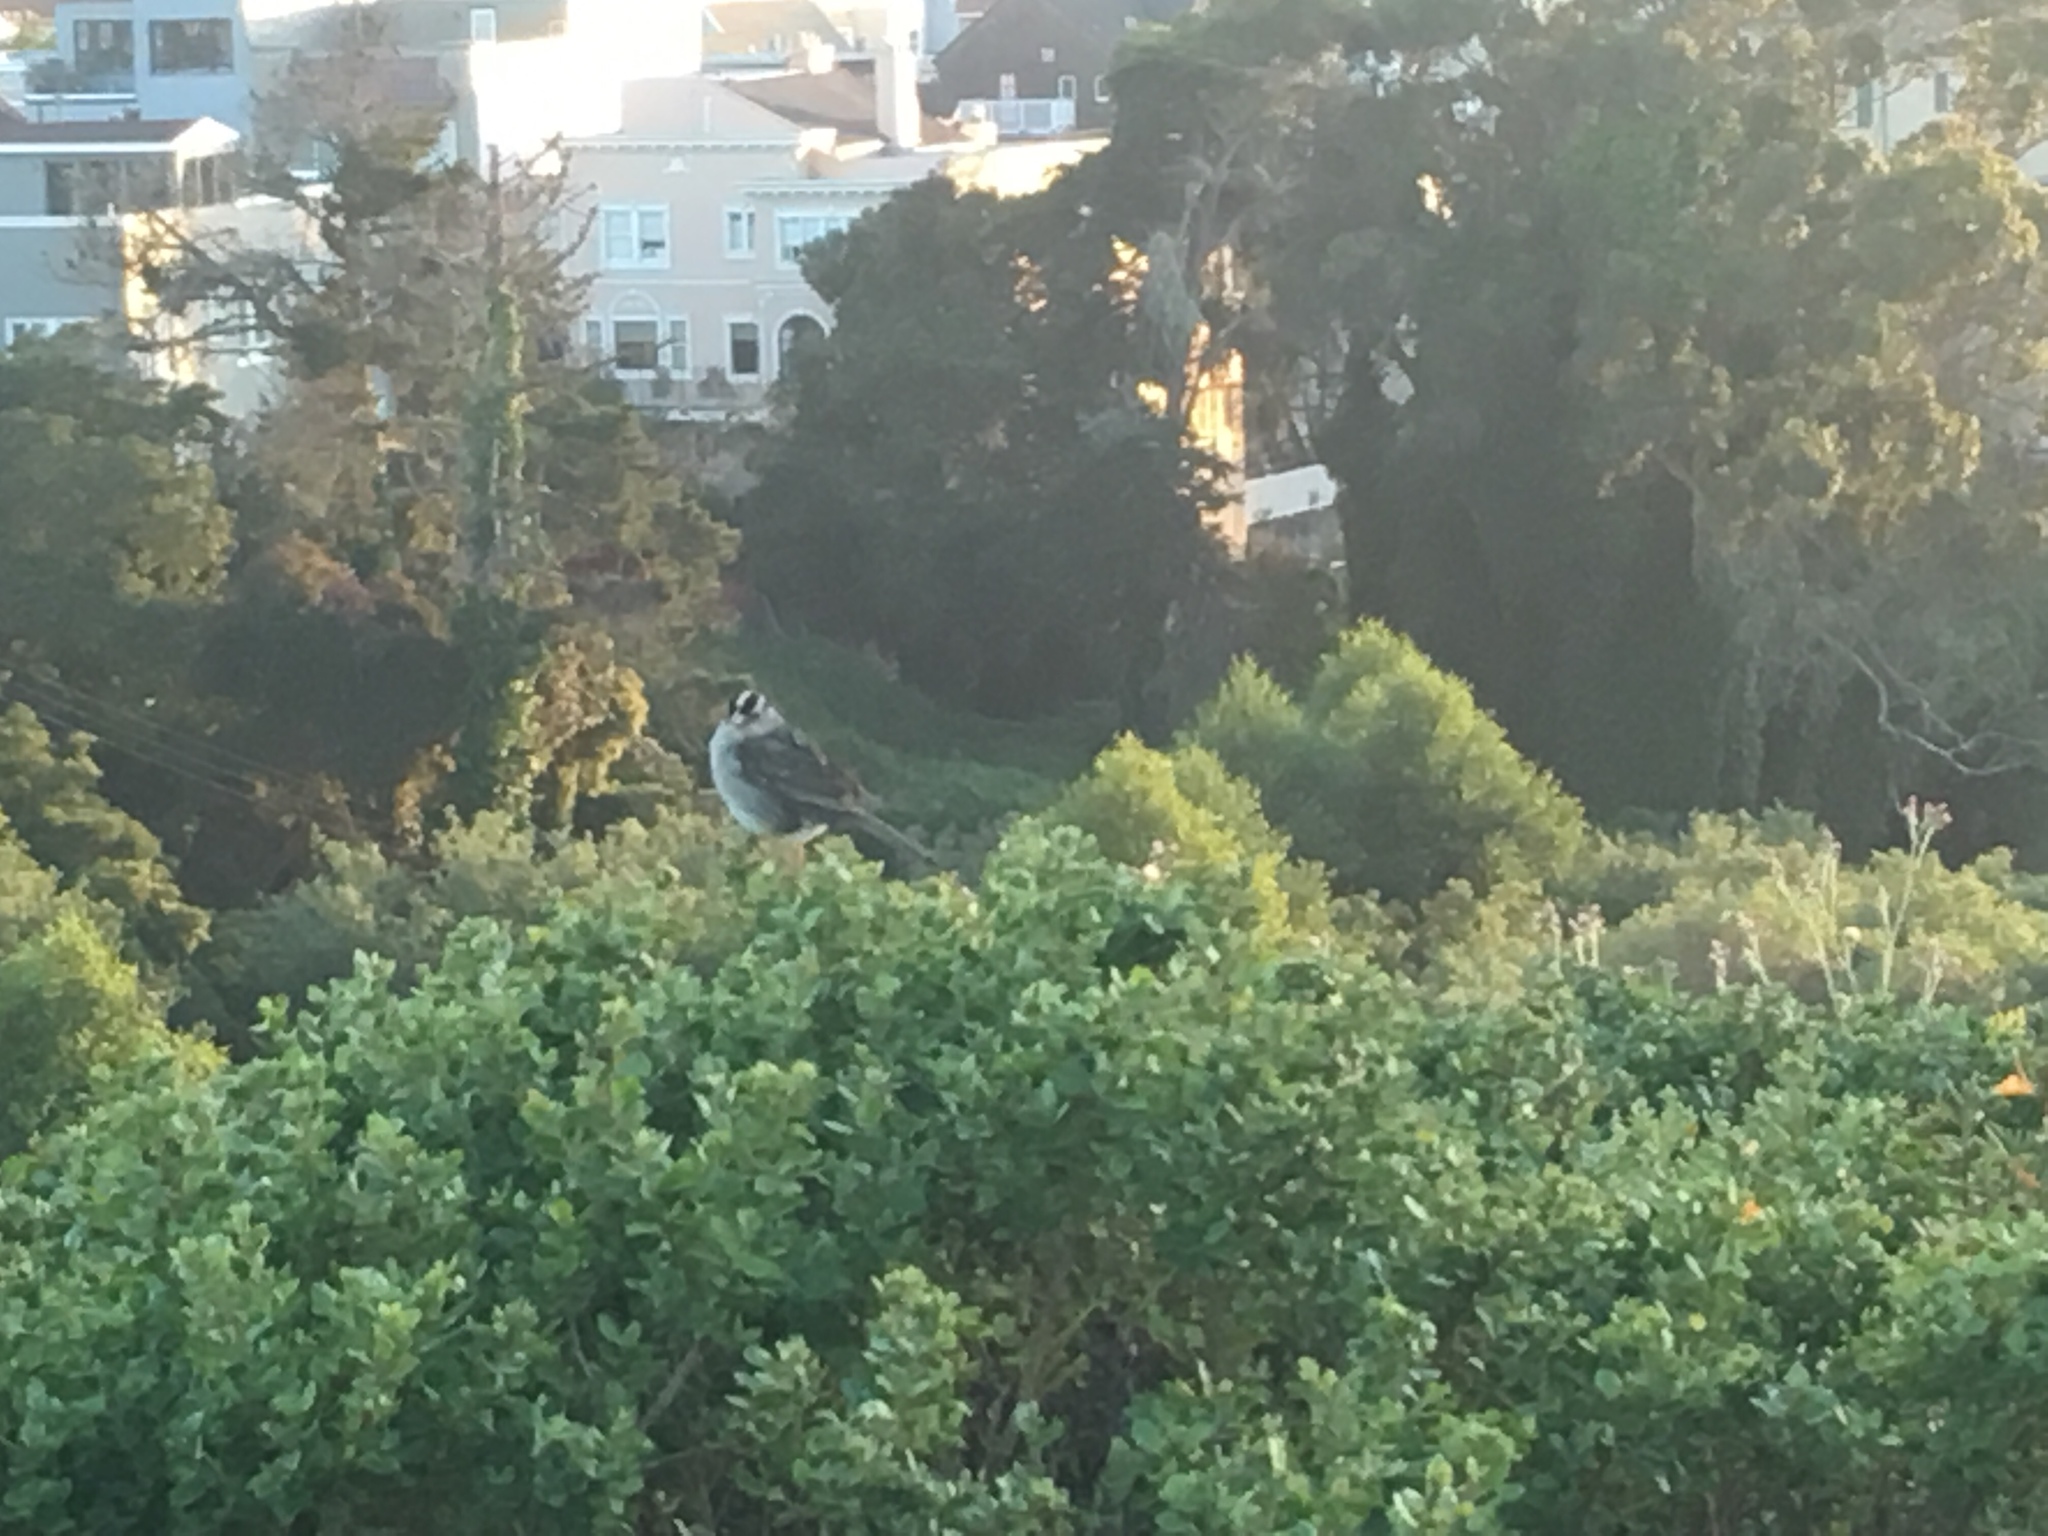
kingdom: Animalia
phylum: Chordata
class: Aves
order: Passeriformes
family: Passerellidae
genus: Zonotrichia
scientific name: Zonotrichia leucophrys
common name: White-crowned sparrow
